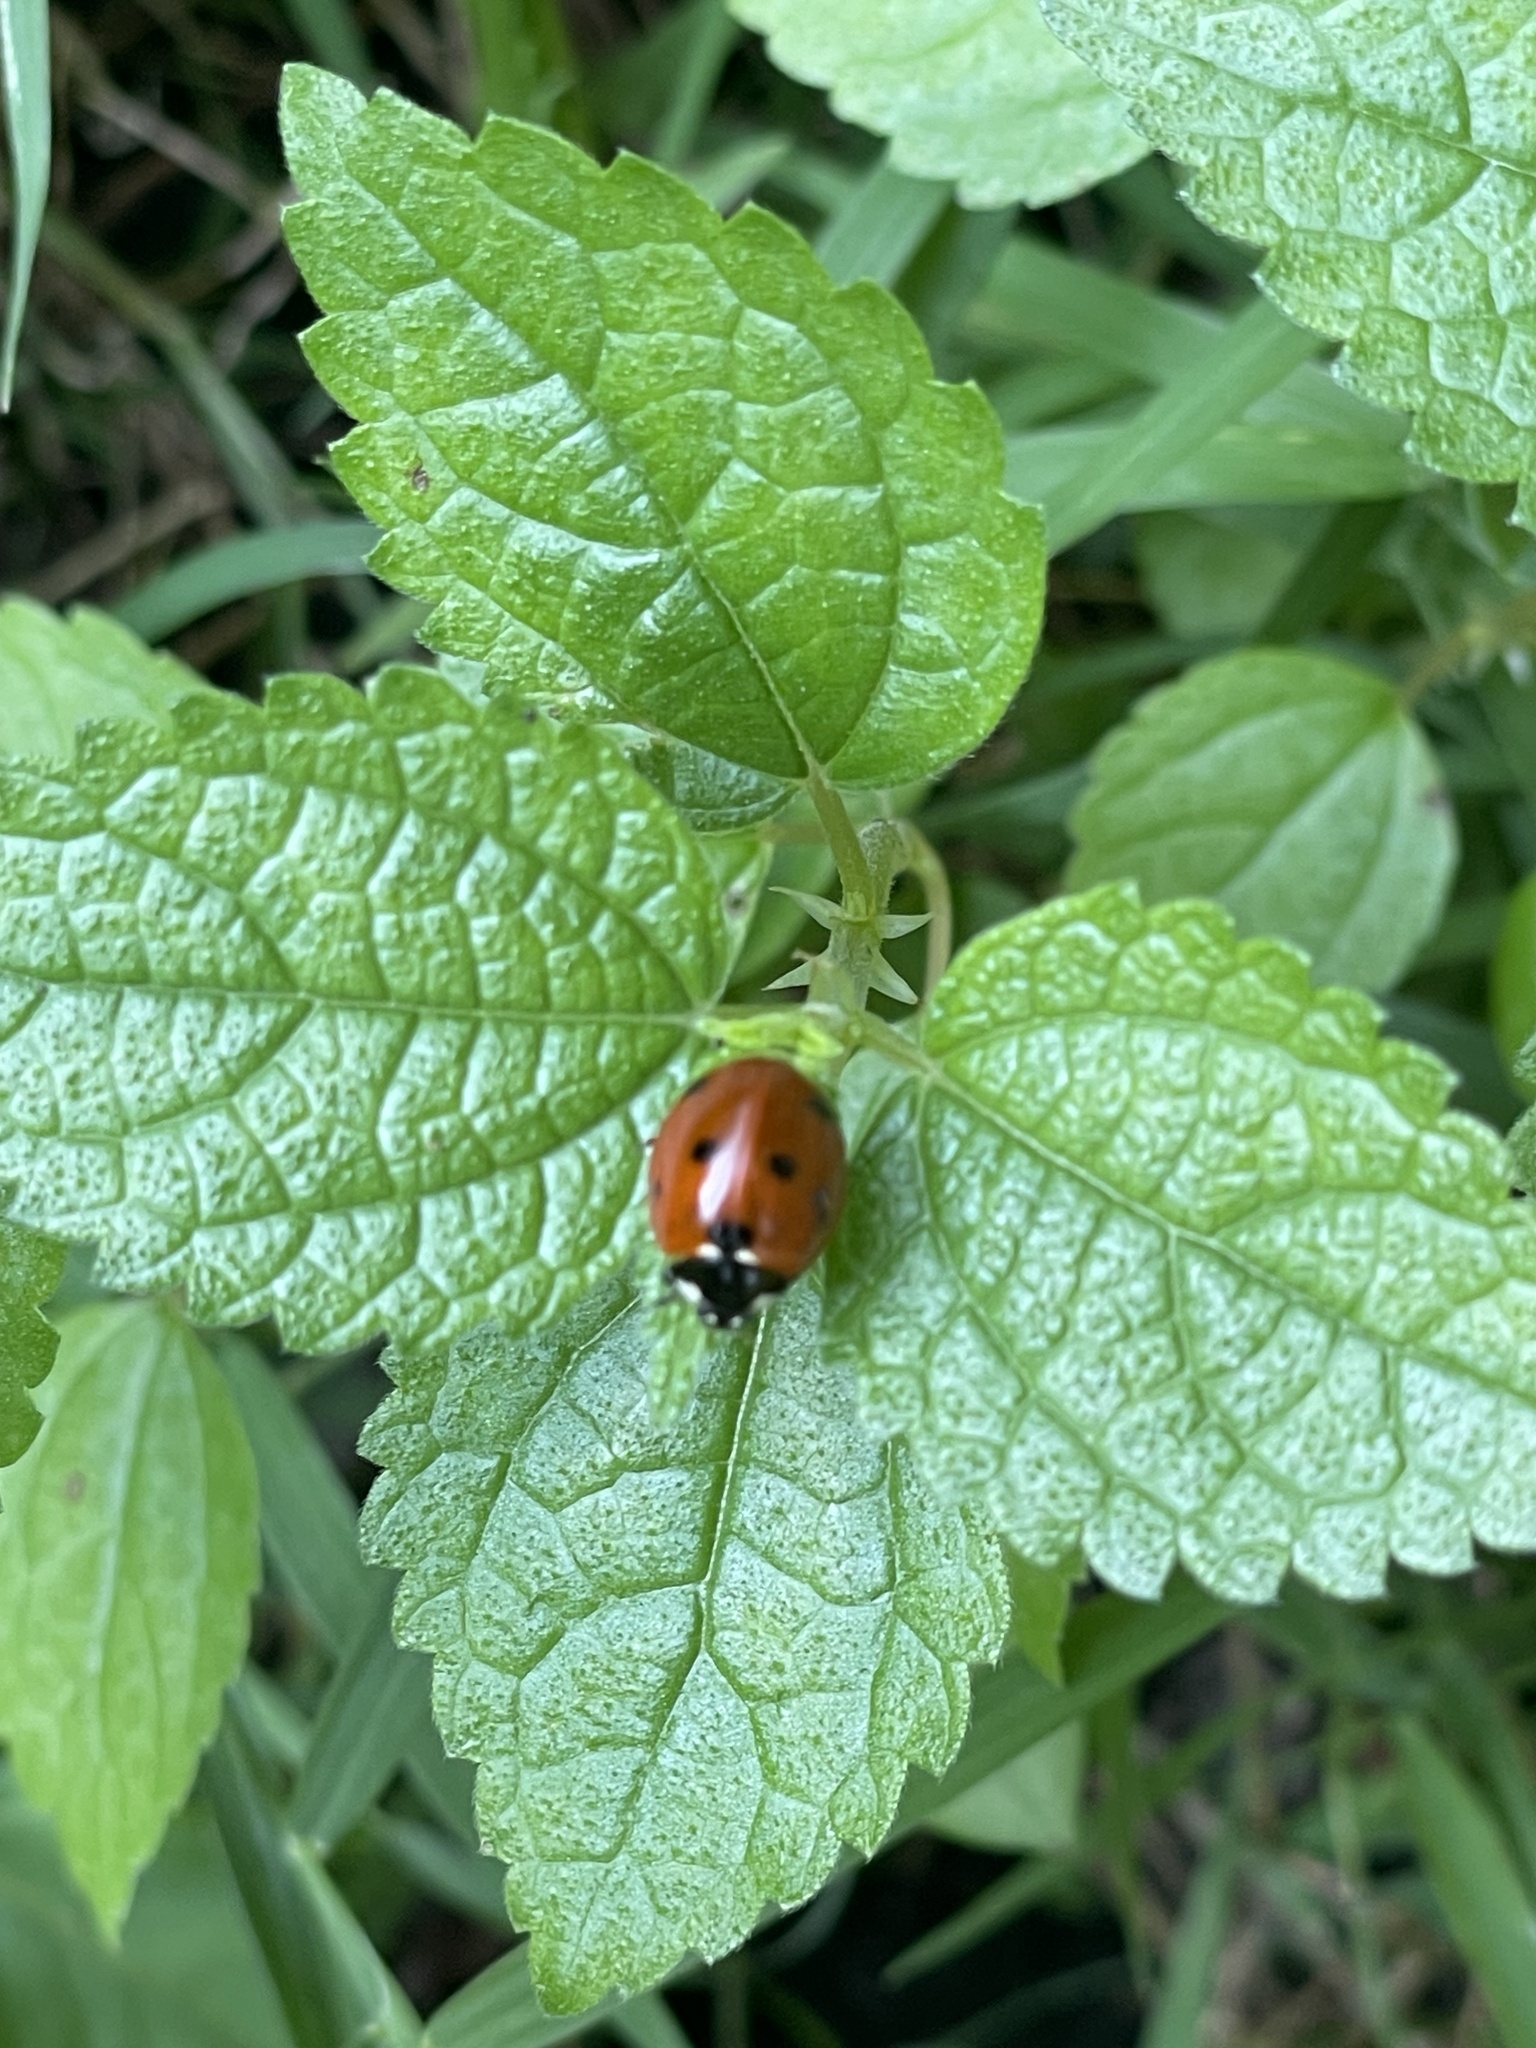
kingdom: Animalia
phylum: Arthropoda
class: Insecta
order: Coleoptera
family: Coccinellidae
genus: Coccinella
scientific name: Coccinella septempunctata
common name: Sevenspotted lady beetle
